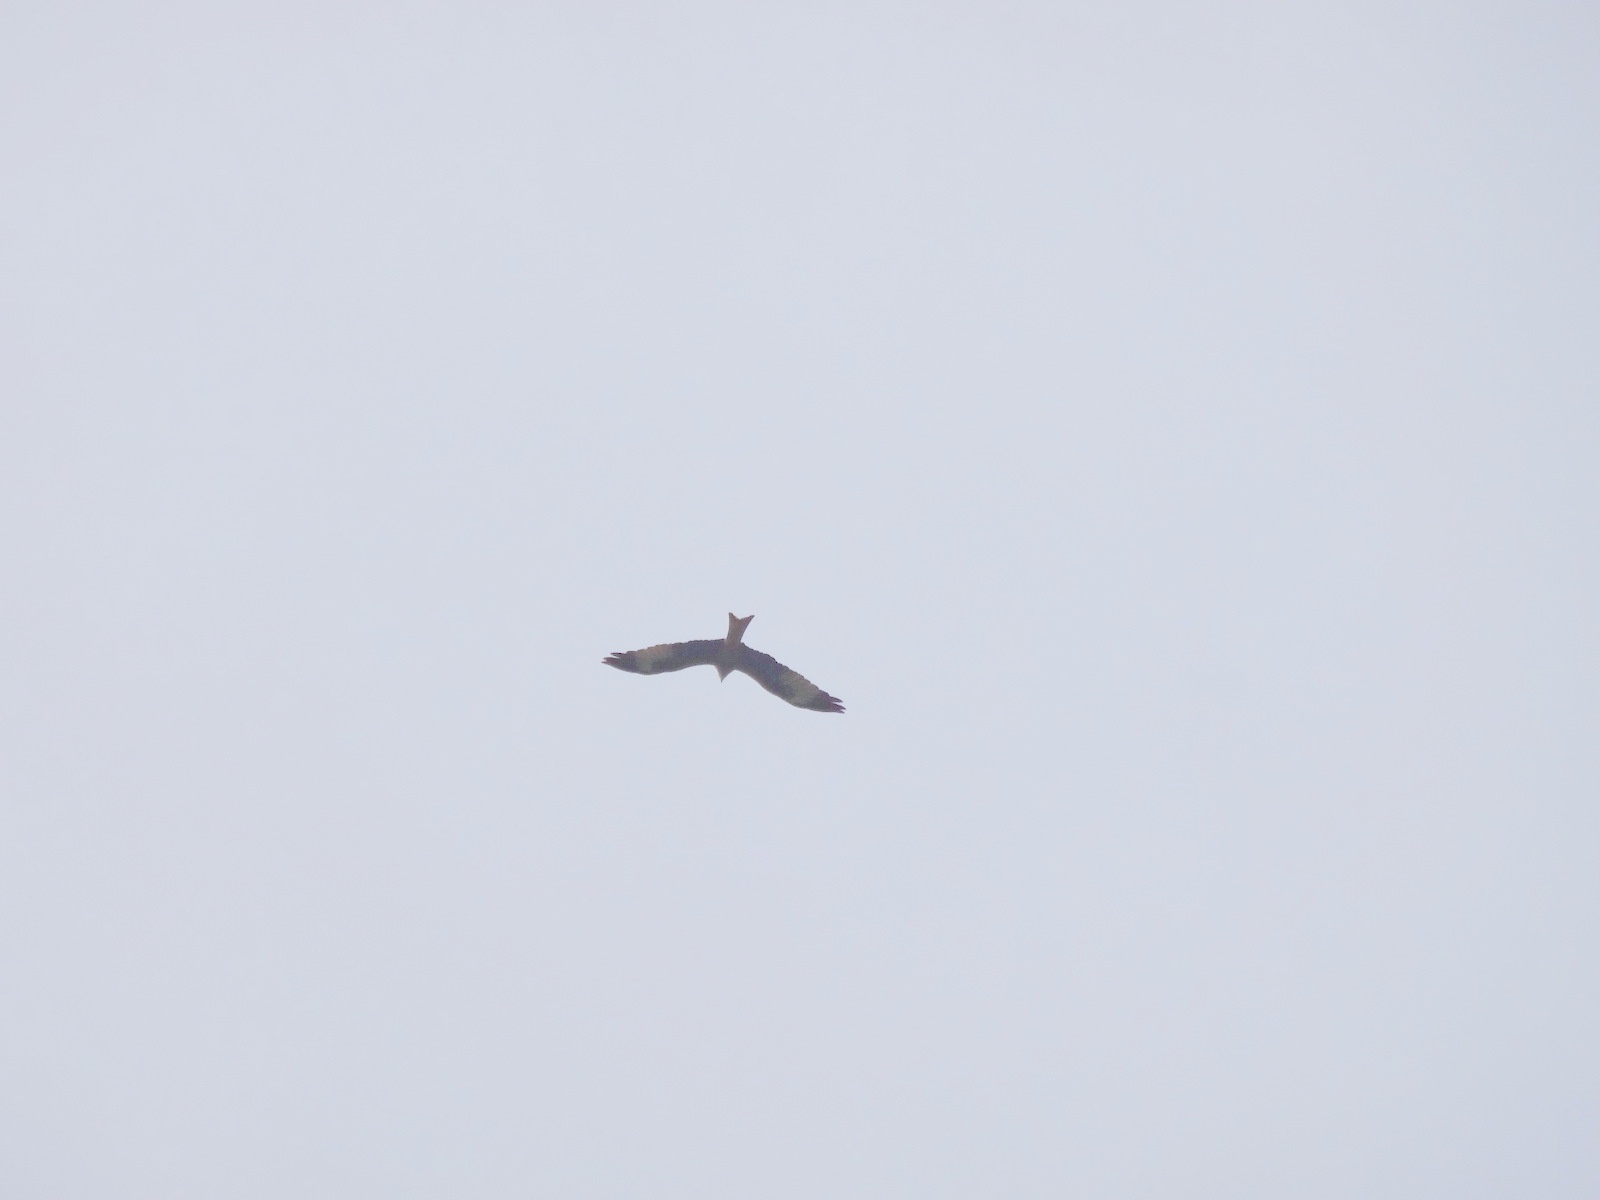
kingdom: Animalia
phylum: Chordata
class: Aves
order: Accipitriformes
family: Accipitridae
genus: Milvus
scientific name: Milvus milvus
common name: Red kite
